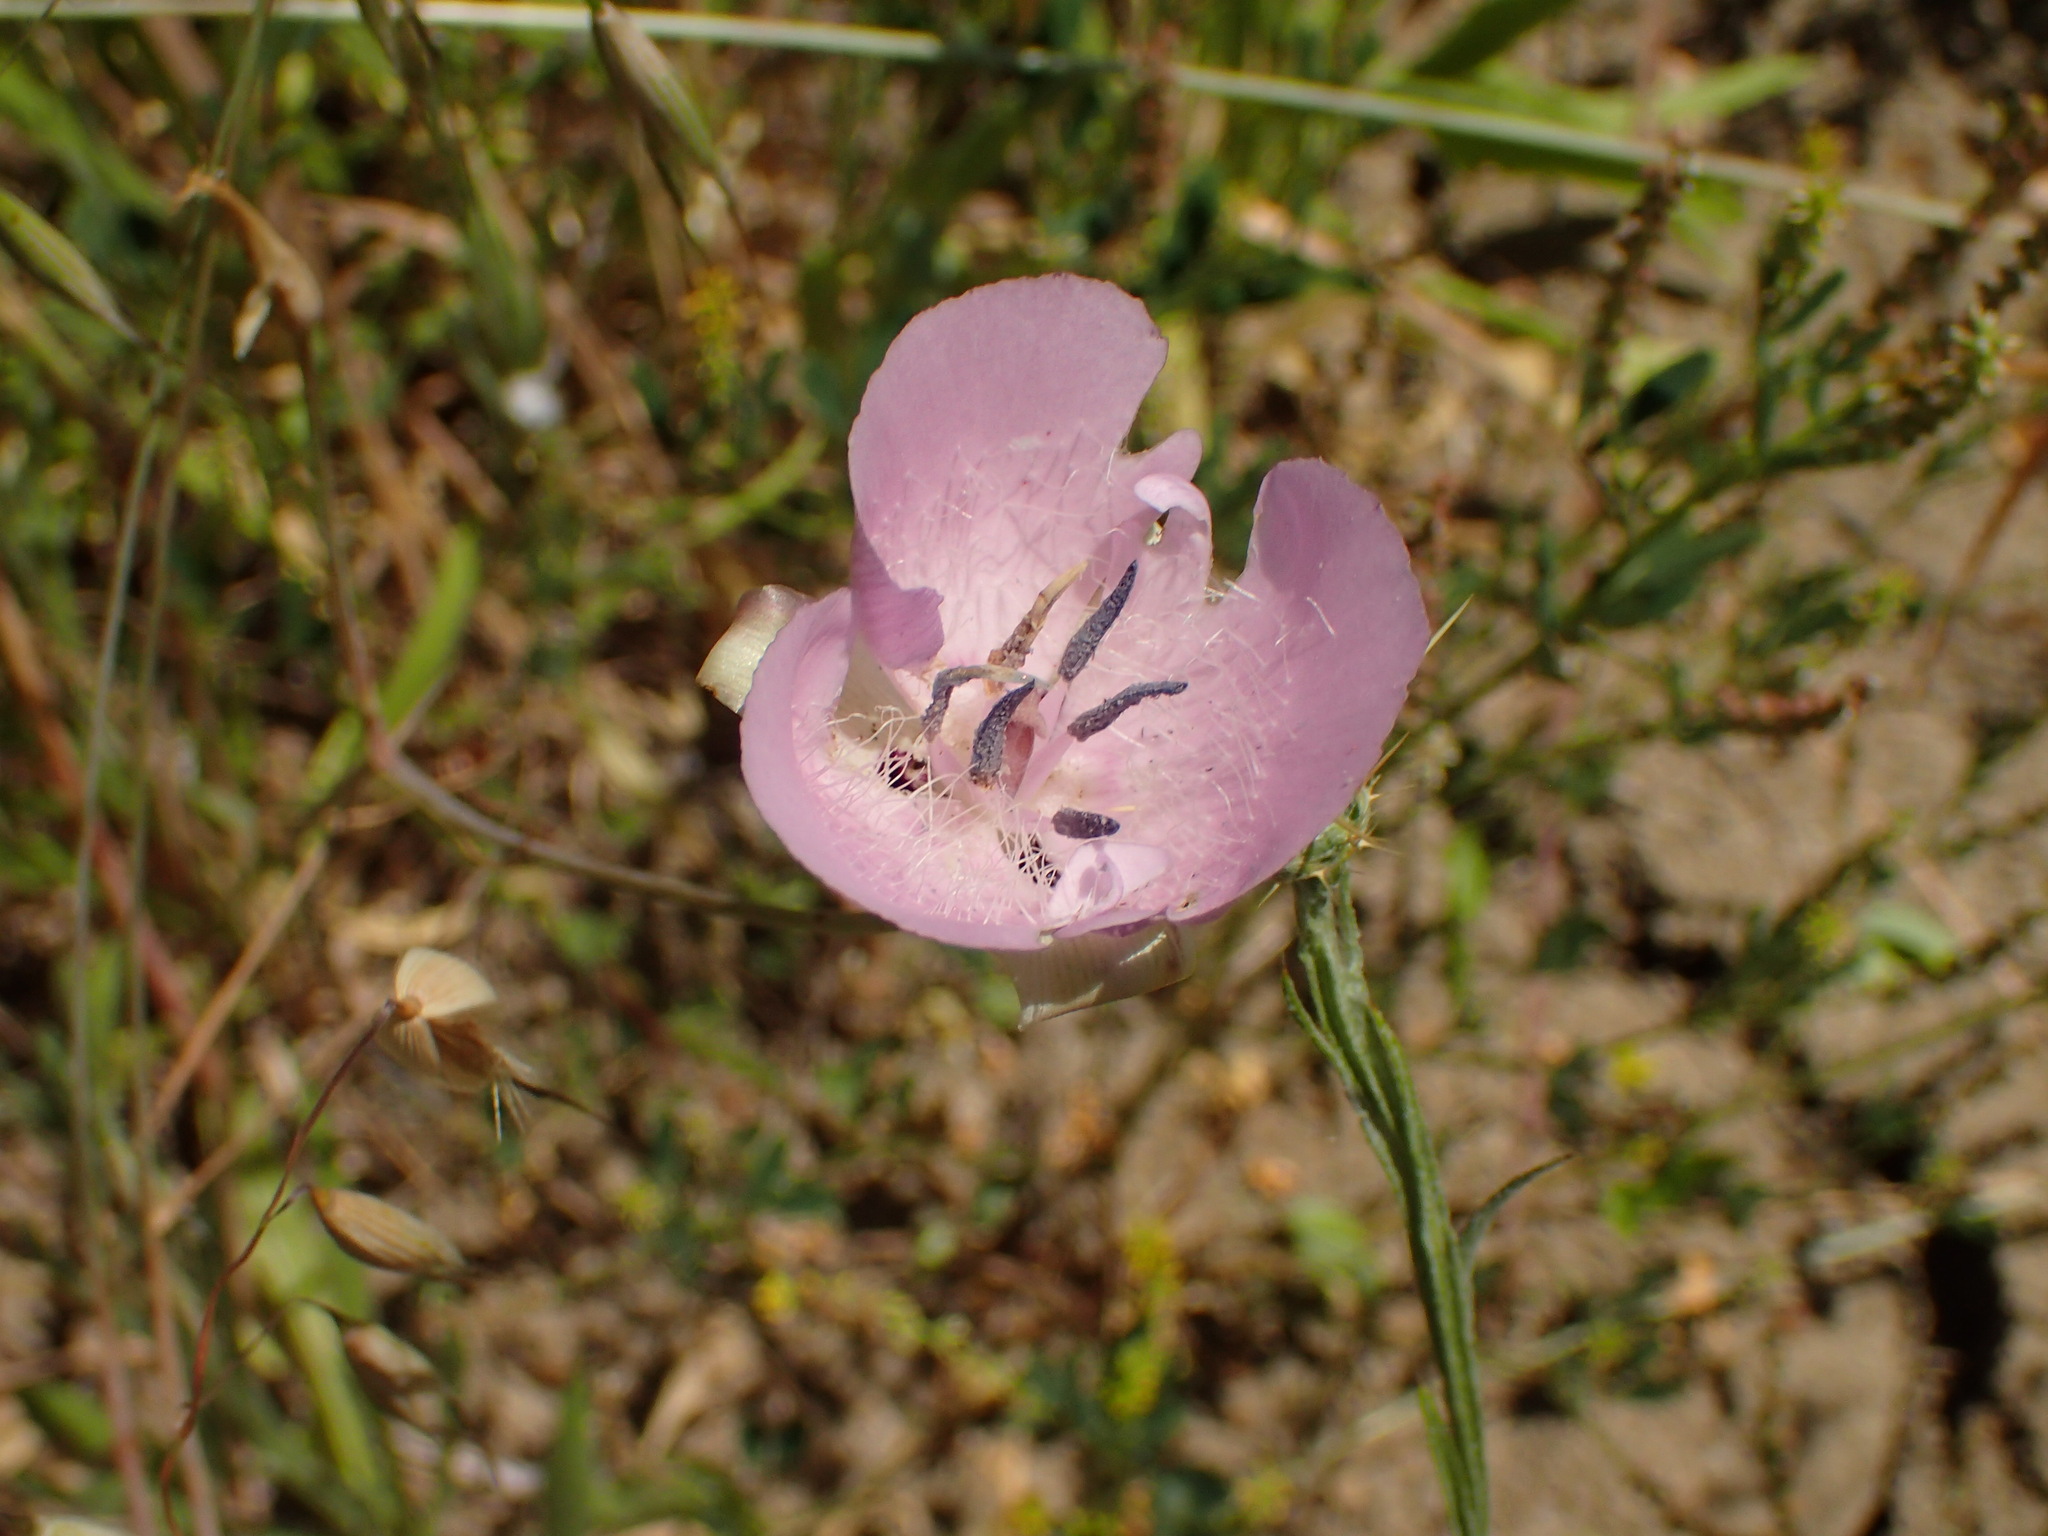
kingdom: Plantae
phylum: Tracheophyta
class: Liliopsida
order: Liliales
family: Liliaceae
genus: Calochortus
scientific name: Calochortus splendens
